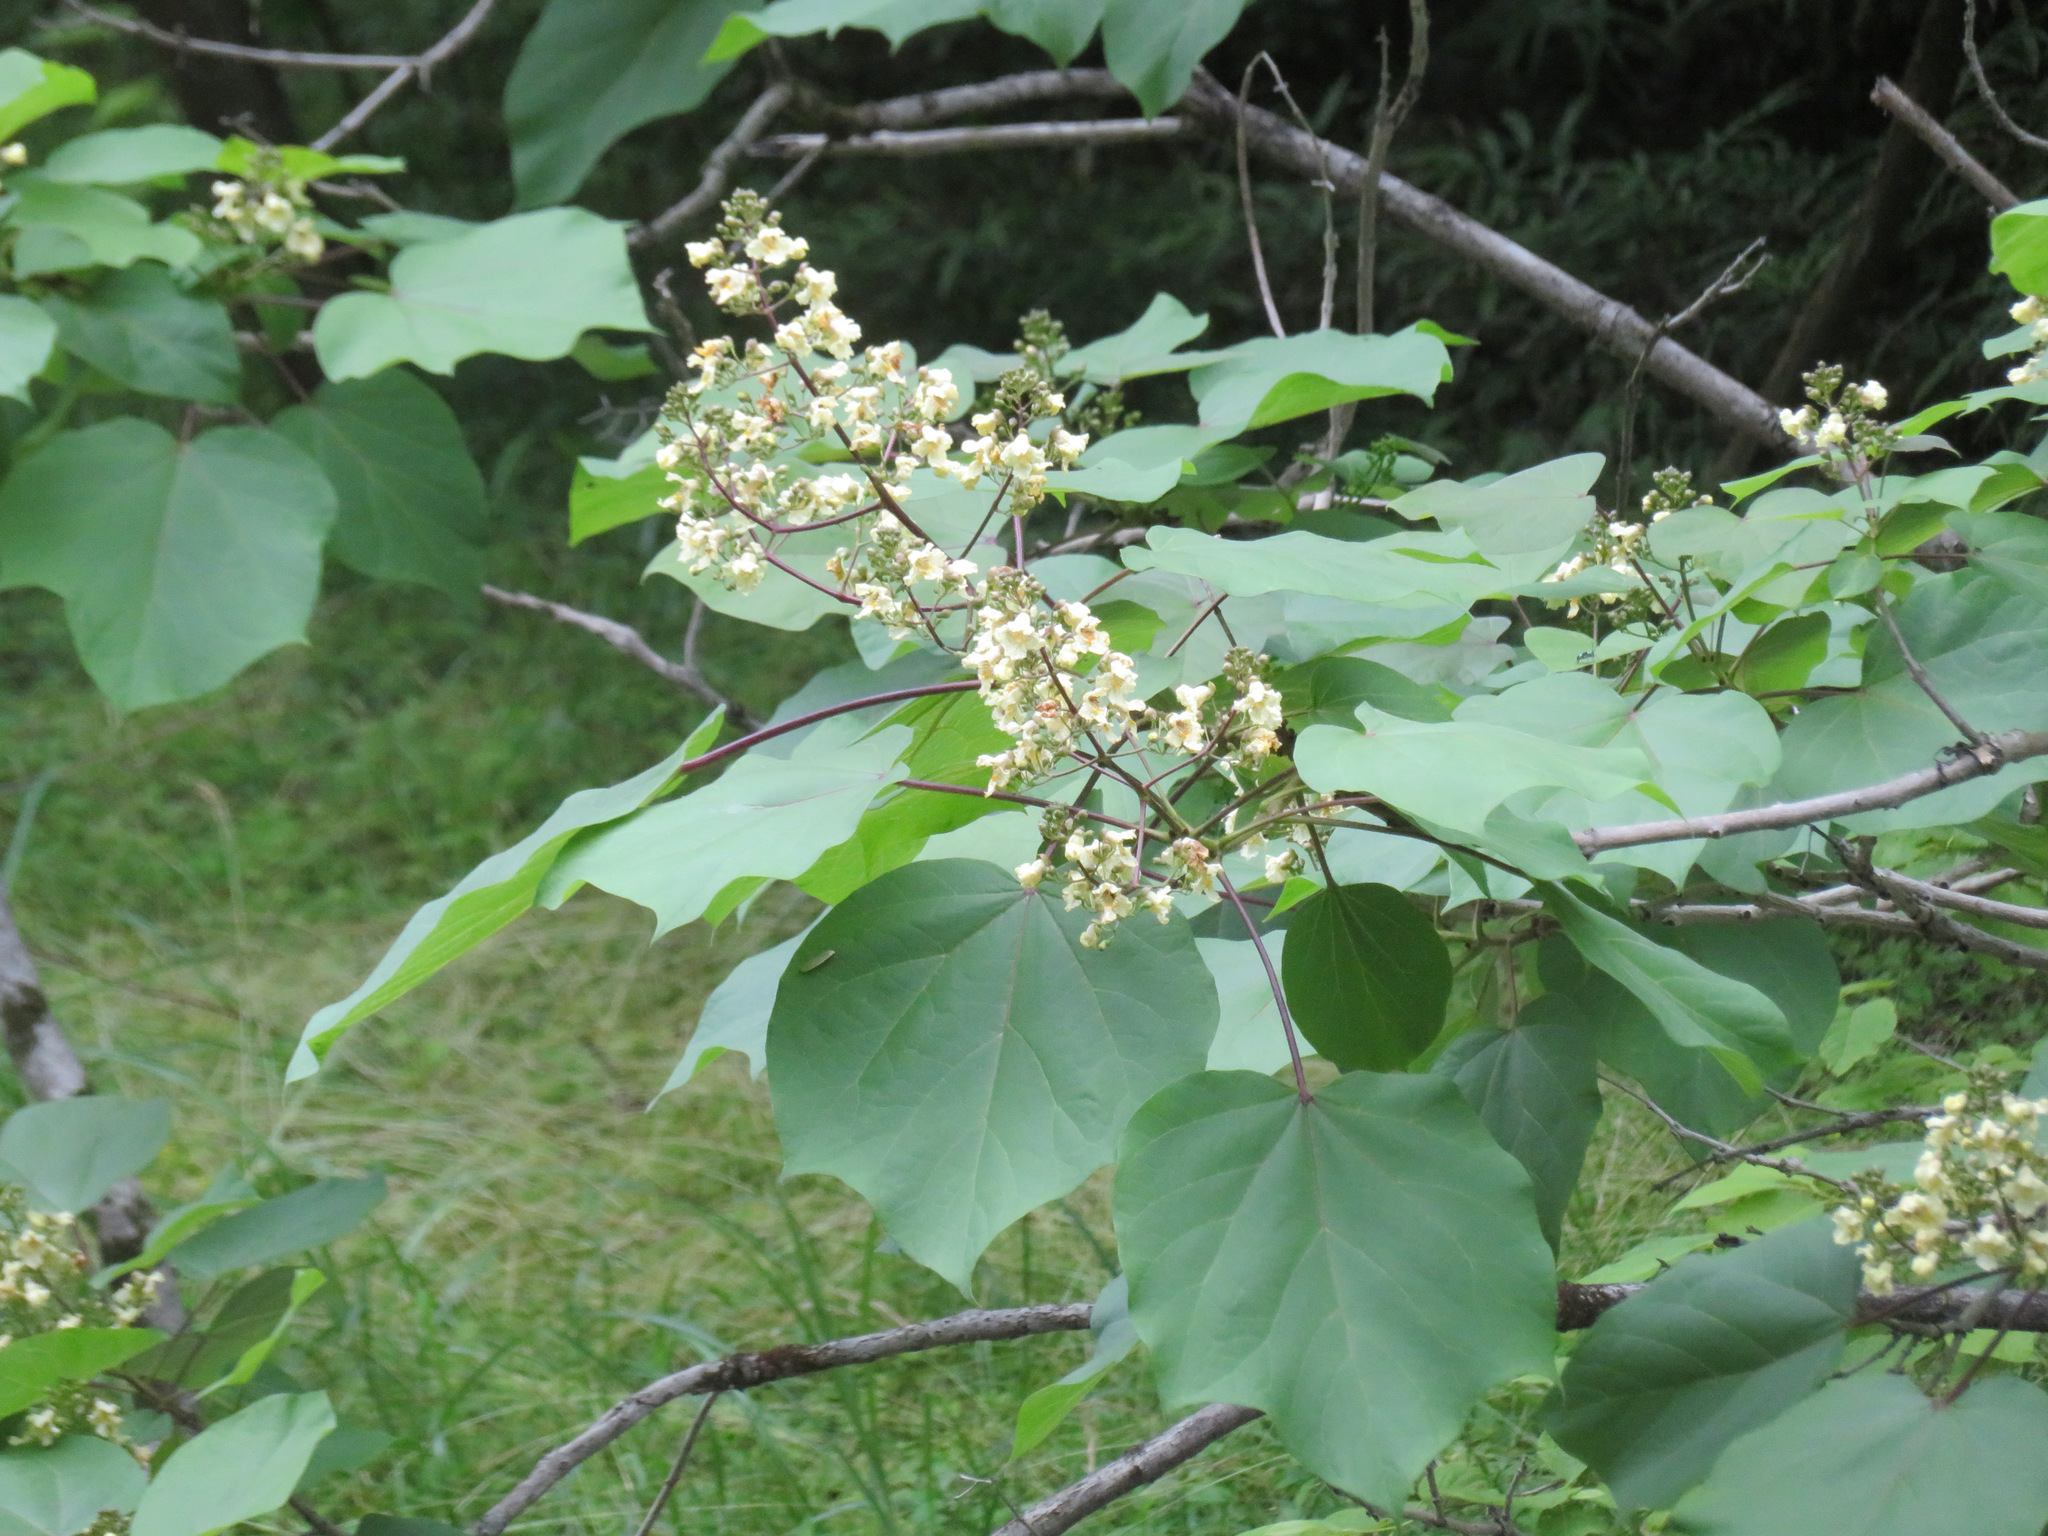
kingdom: Plantae
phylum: Tracheophyta
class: Magnoliopsida
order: Lamiales
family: Bignoniaceae
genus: Catalpa
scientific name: Catalpa ovata
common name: Chinese catalpa
